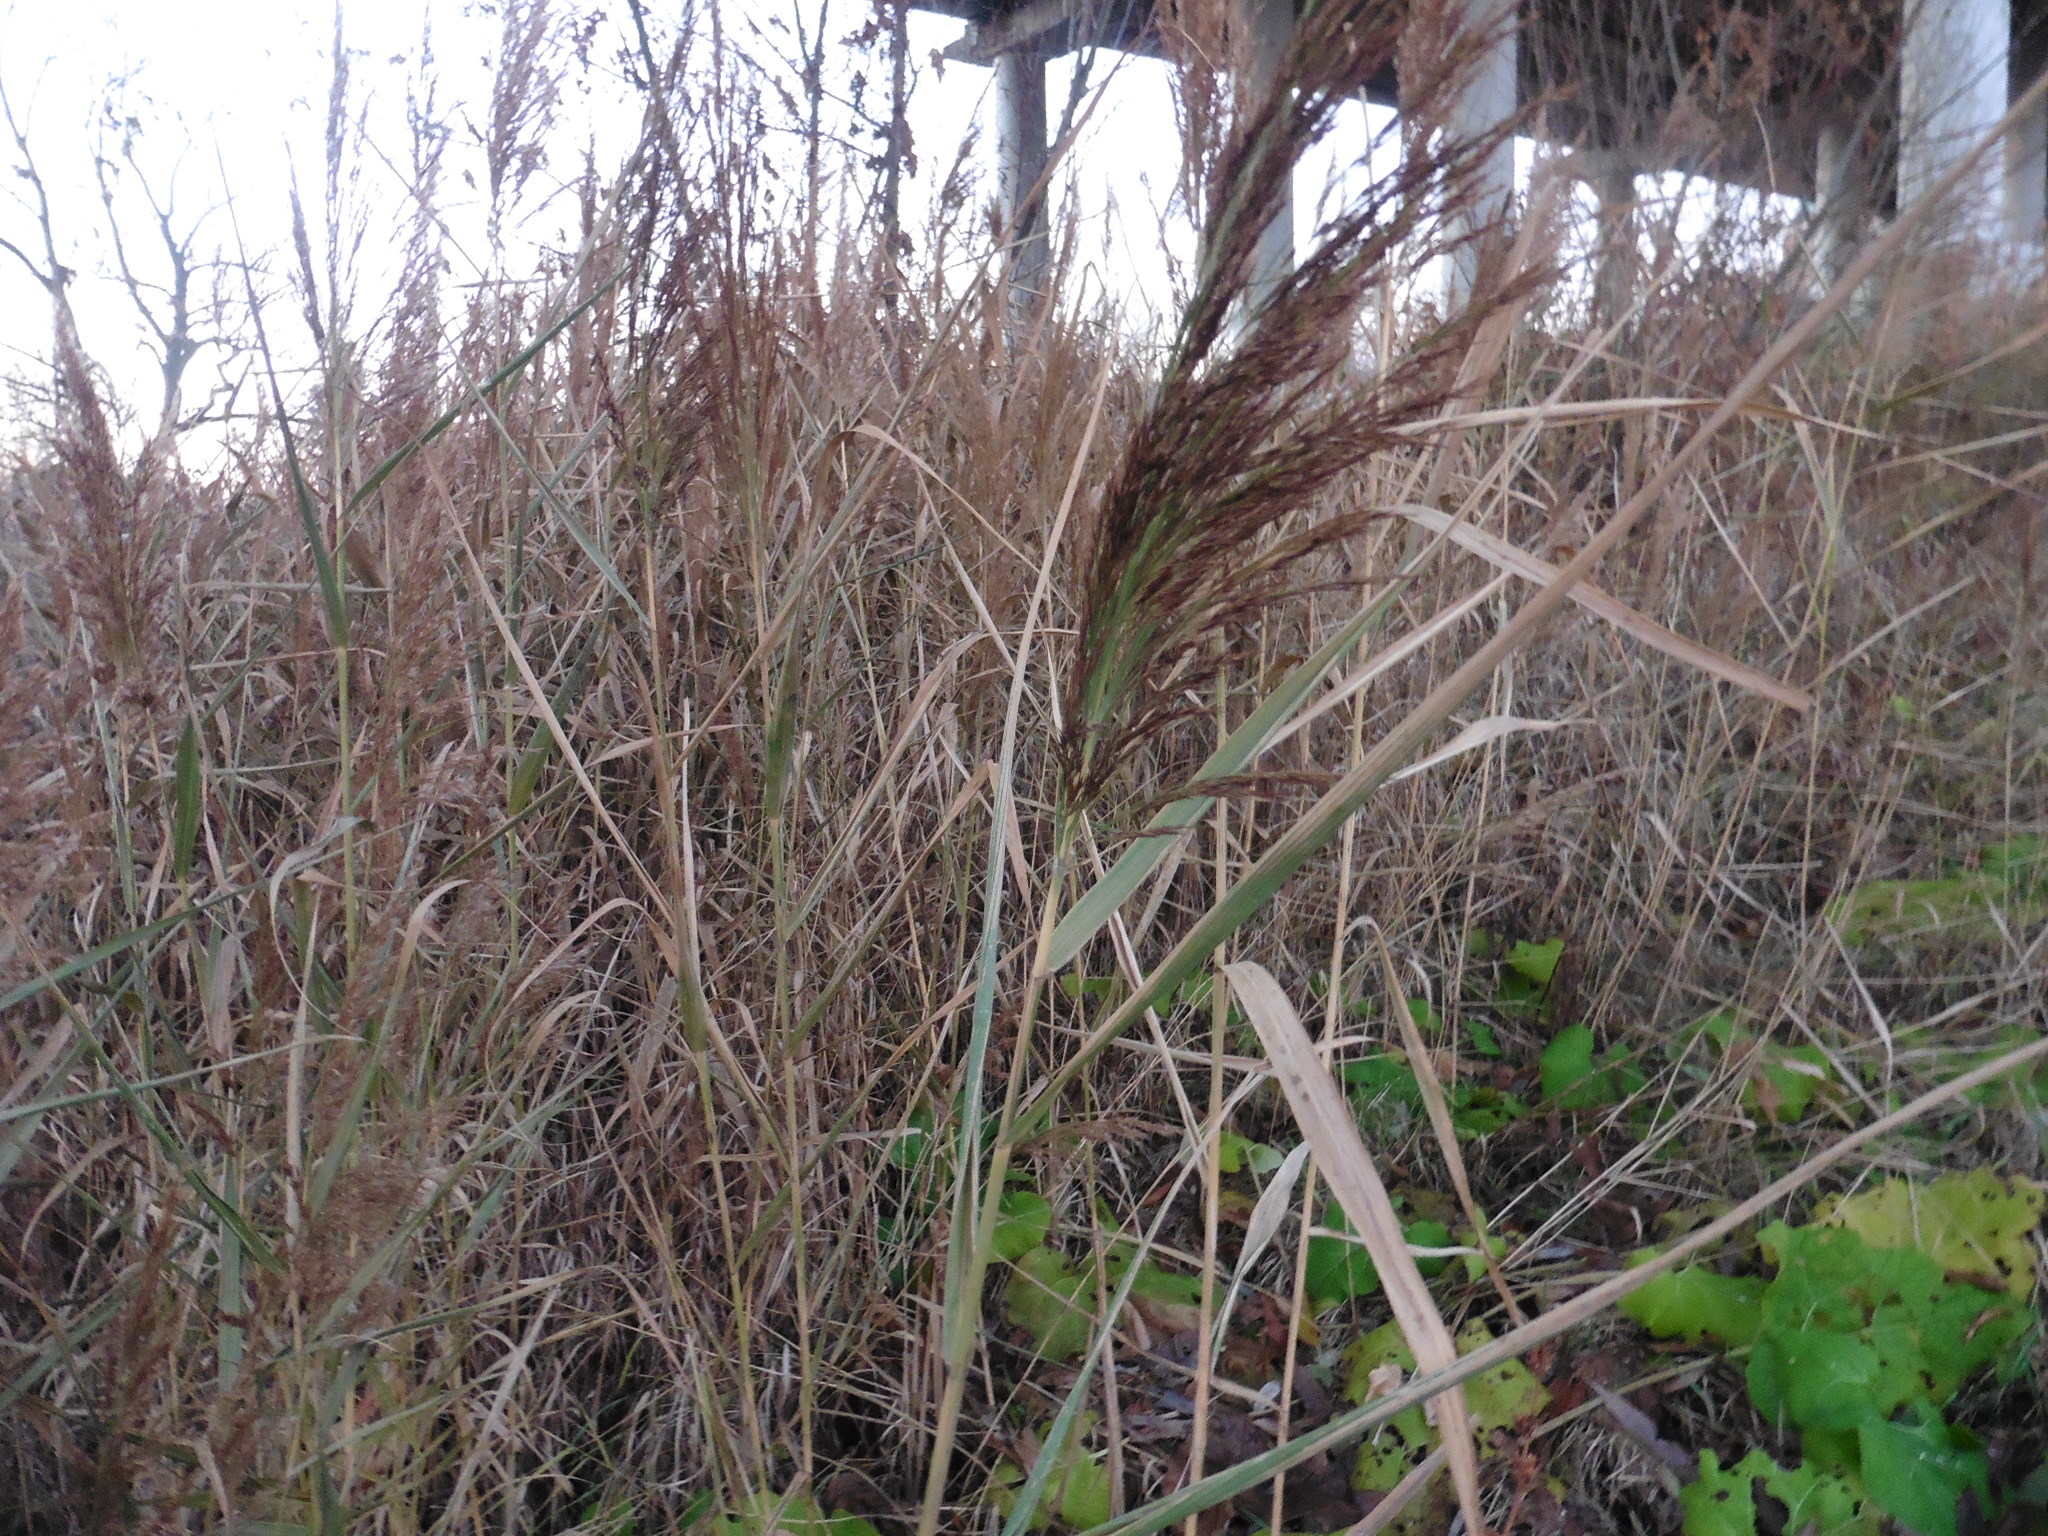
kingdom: Plantae
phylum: Tracheophyta
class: Liliopsida
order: Poales
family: Poaceae
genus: Phragmites
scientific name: Phragmites australis
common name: Common reed
